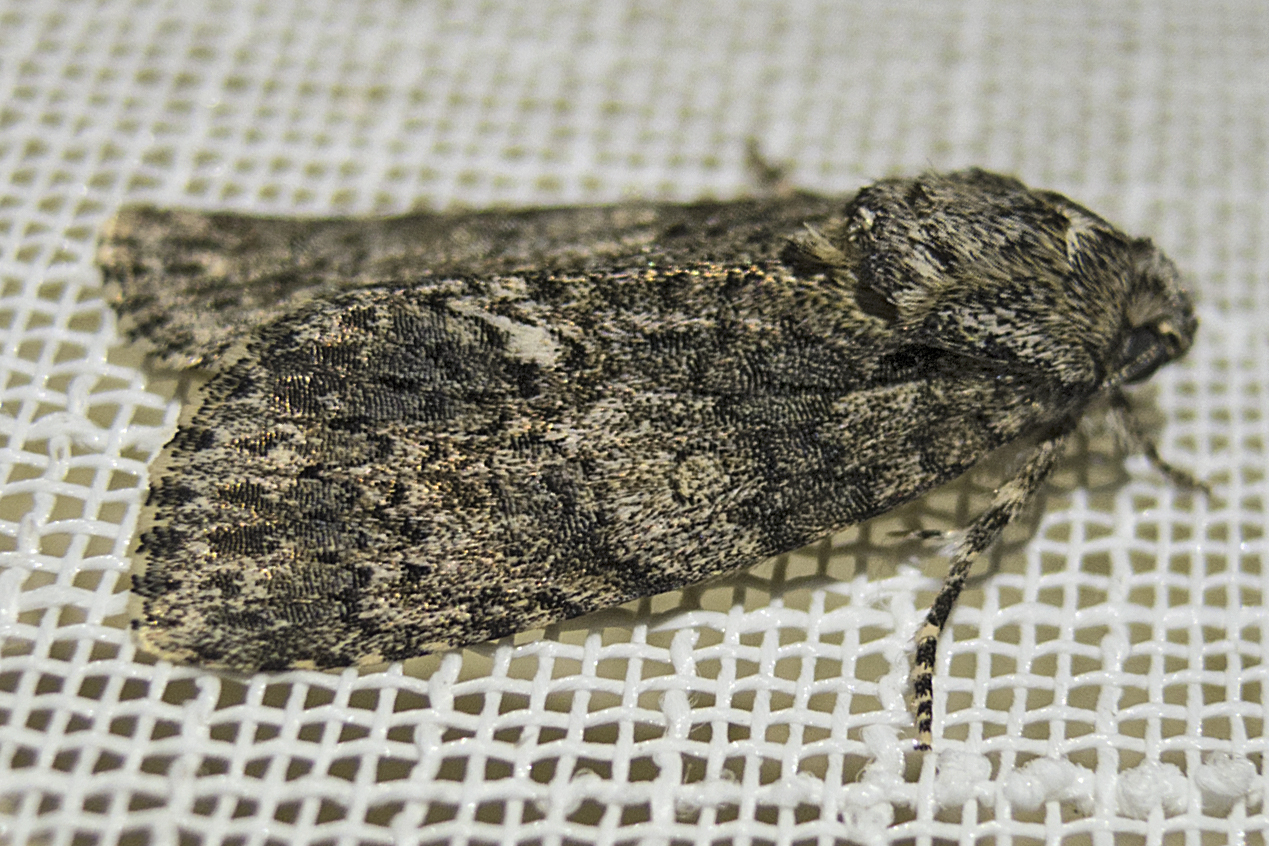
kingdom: Animalia
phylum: Arthropoda
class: Insecta
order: Lepidoptera
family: Noctuidae
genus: Acronicta
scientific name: Acronicta rumicis
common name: Knot grass
